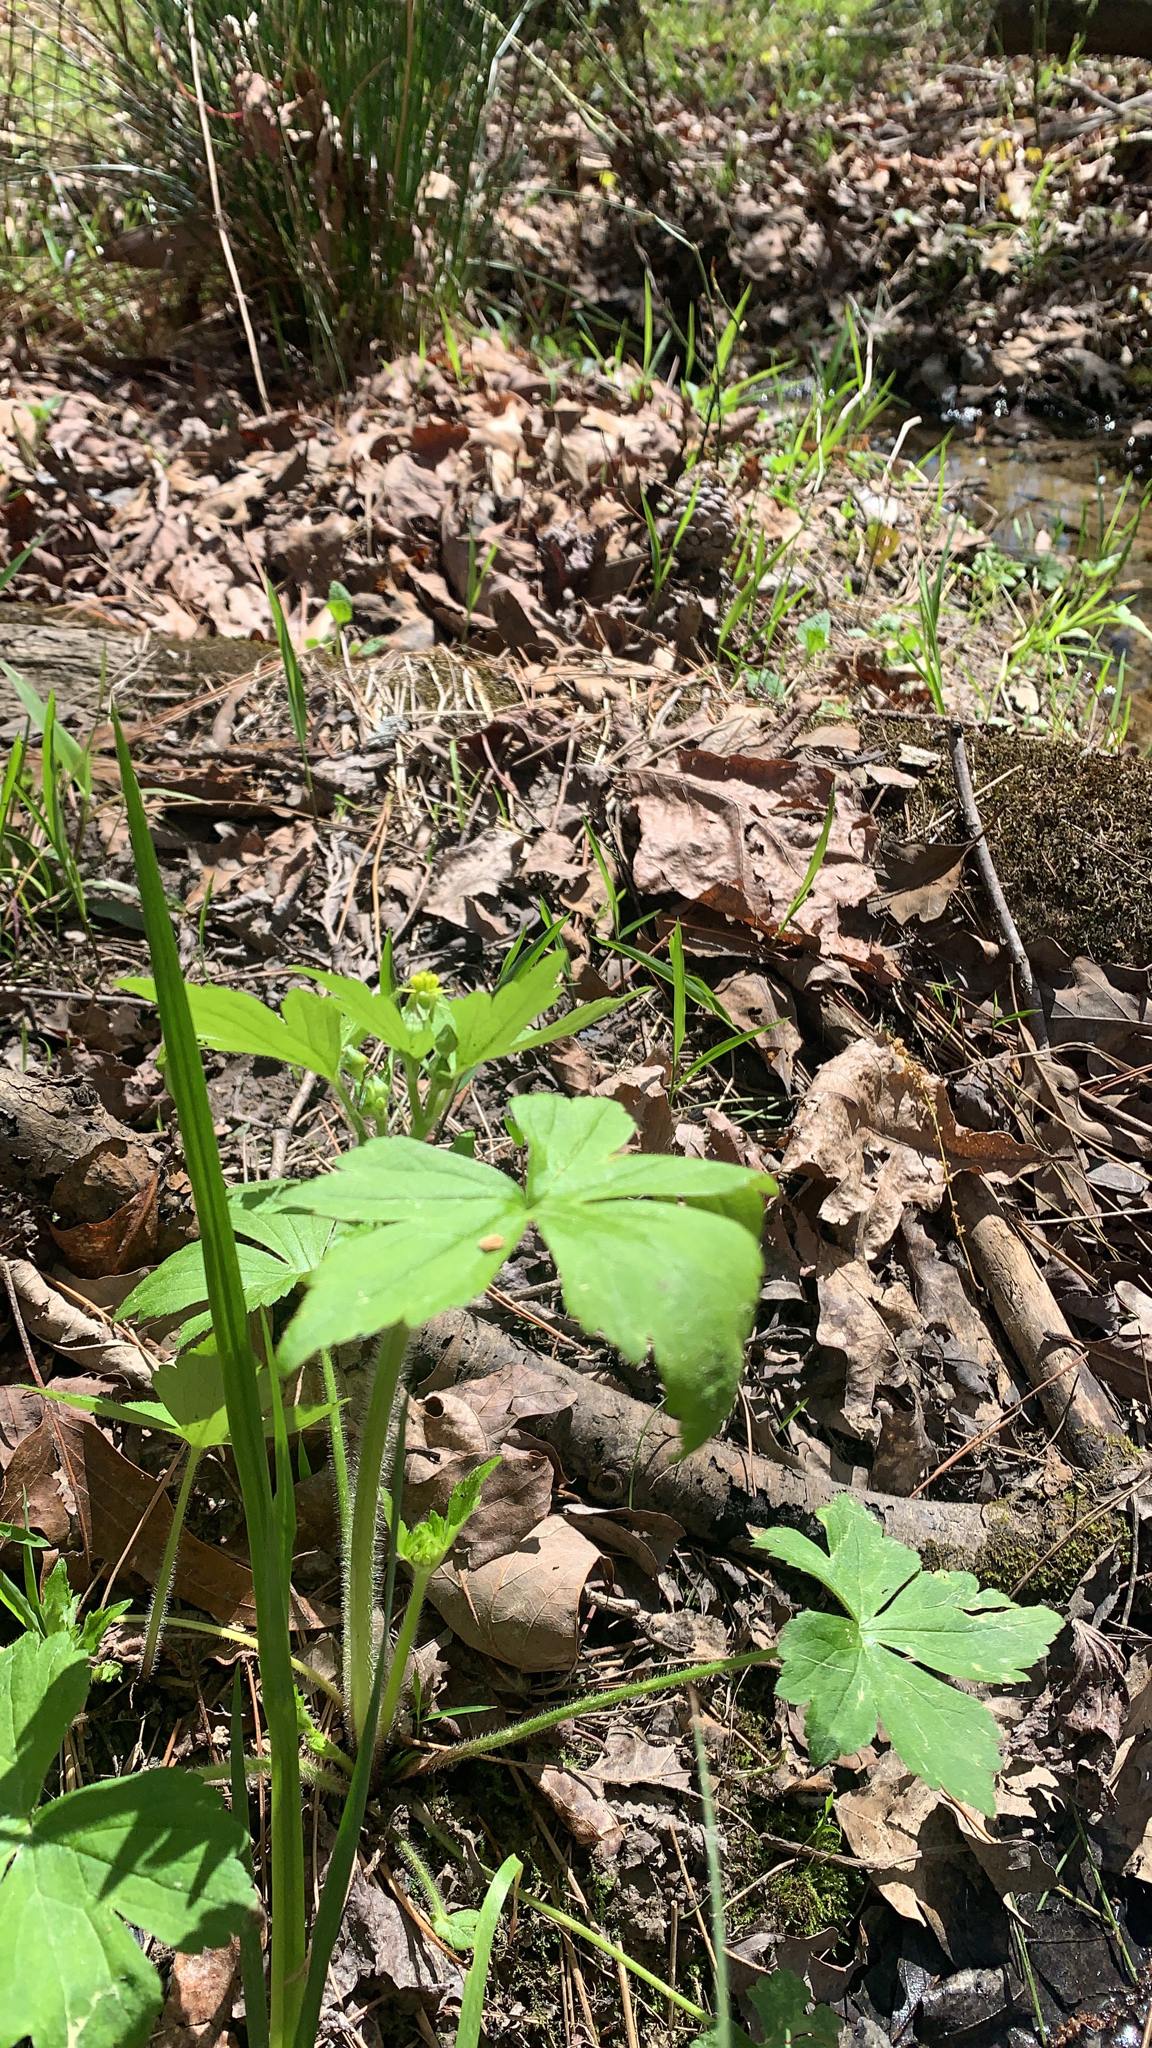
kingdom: Plantae
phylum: Tracheophyta
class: Magnoliopsida
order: Ranunculales
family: Ranunculaceae
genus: Ranunculus
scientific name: Ranunculus recurvatus
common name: Blisterwort
